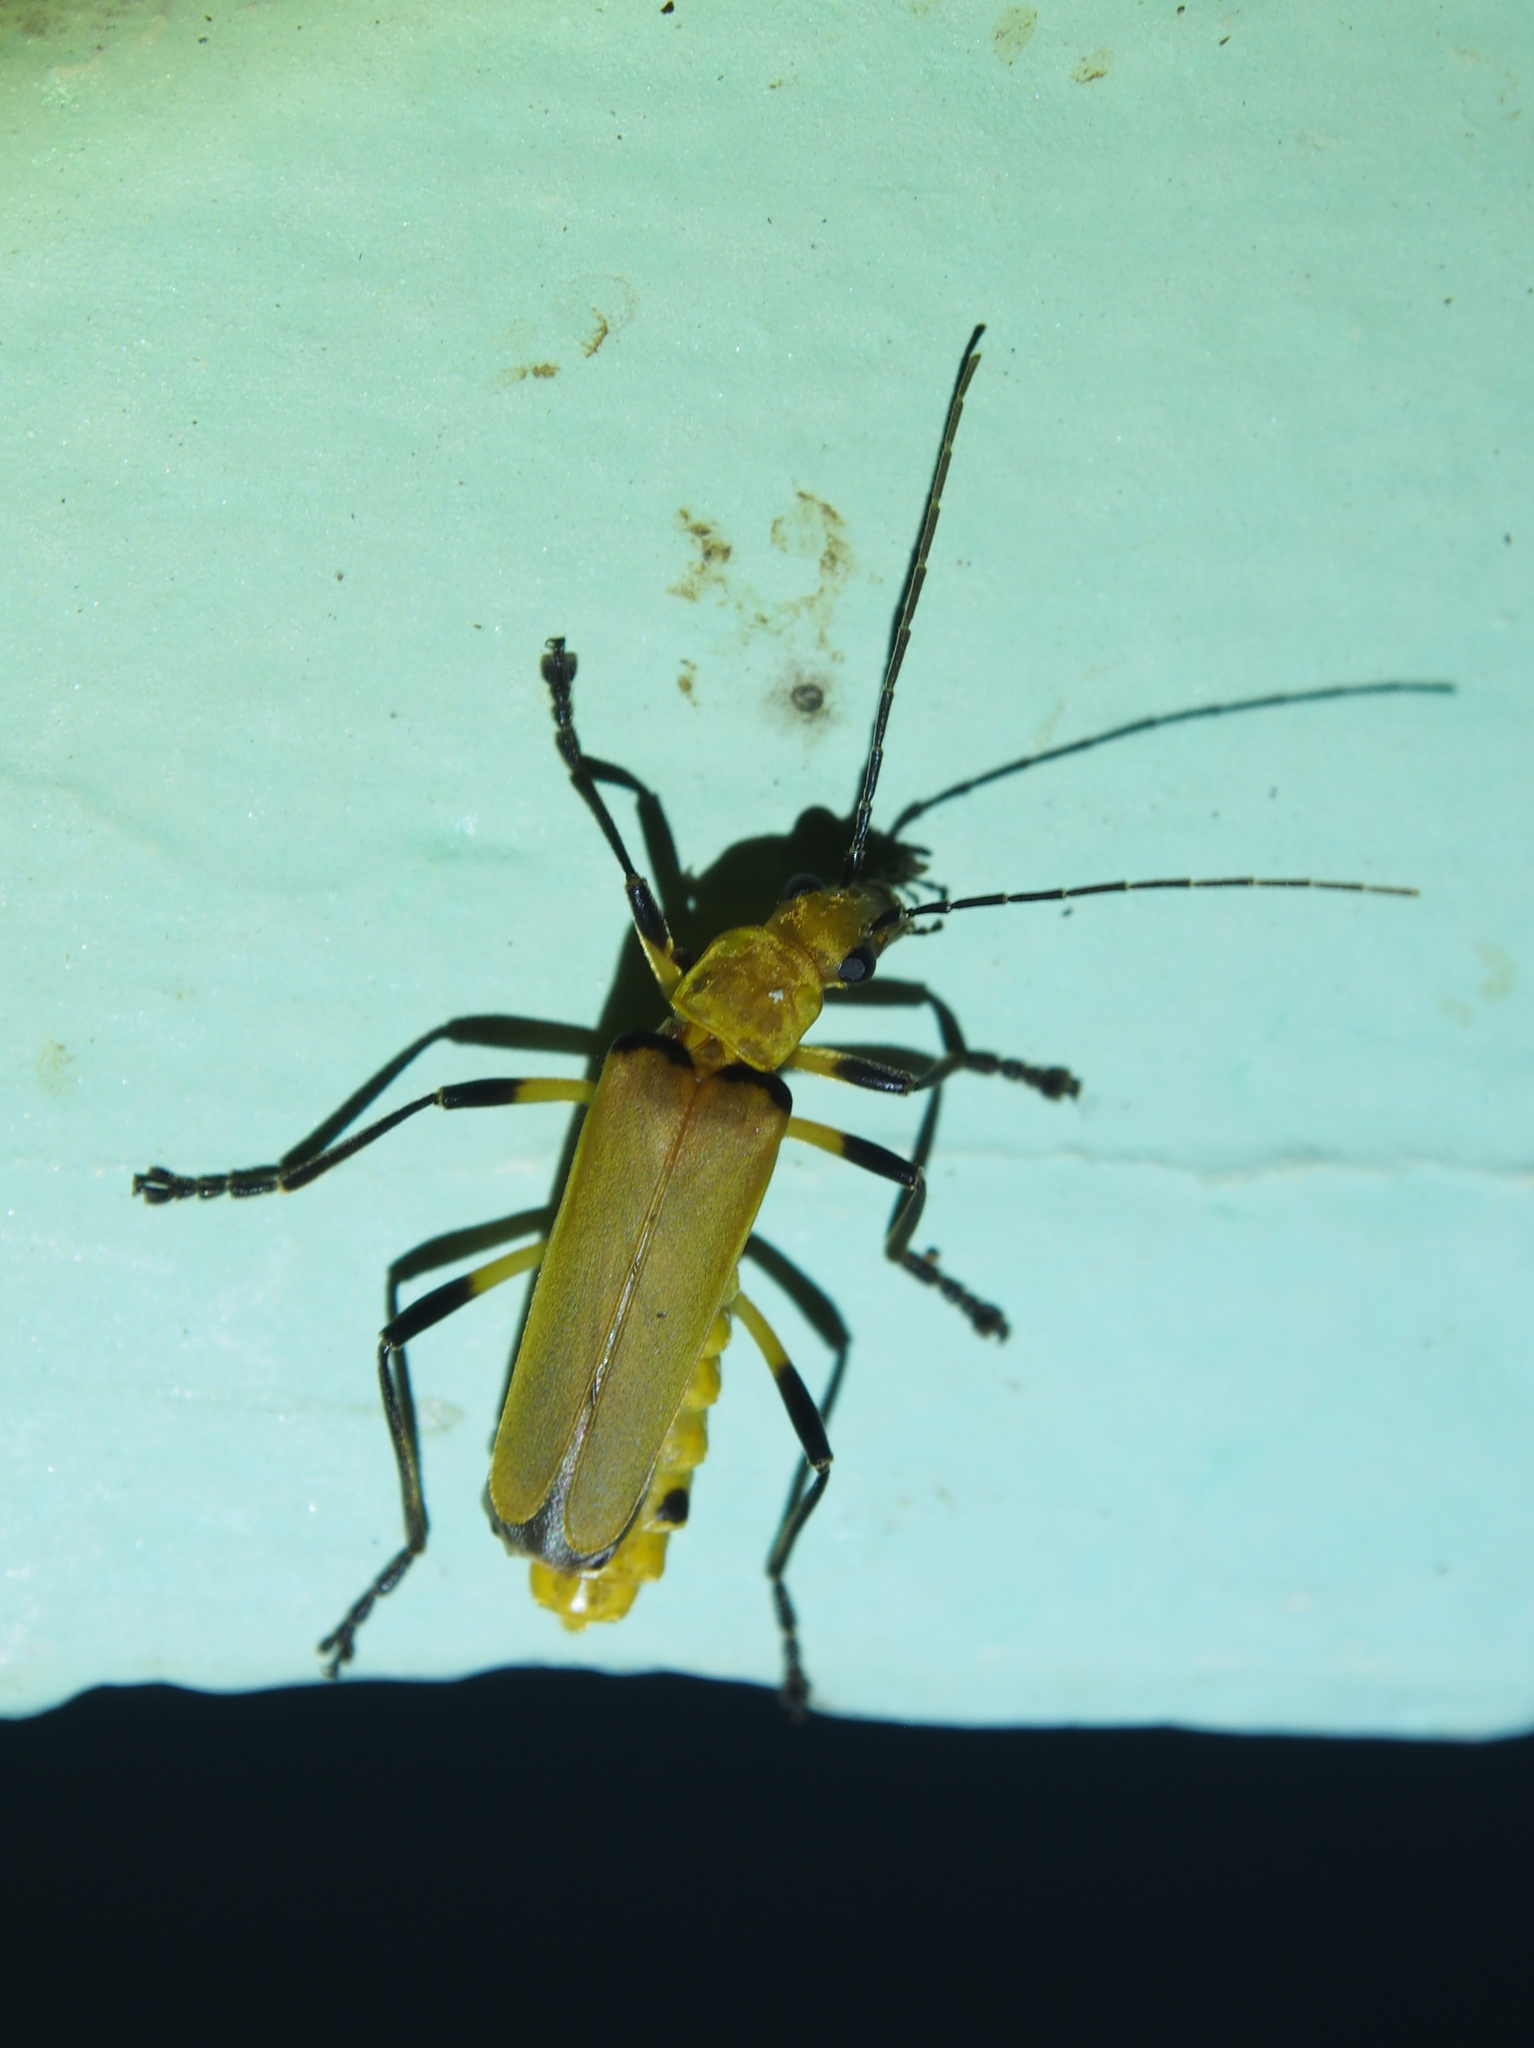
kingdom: Animalia
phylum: Arthropoda
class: Insecta
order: Coleoptera
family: Cantharidae
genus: Chauliognathus
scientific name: Chauliognathus
